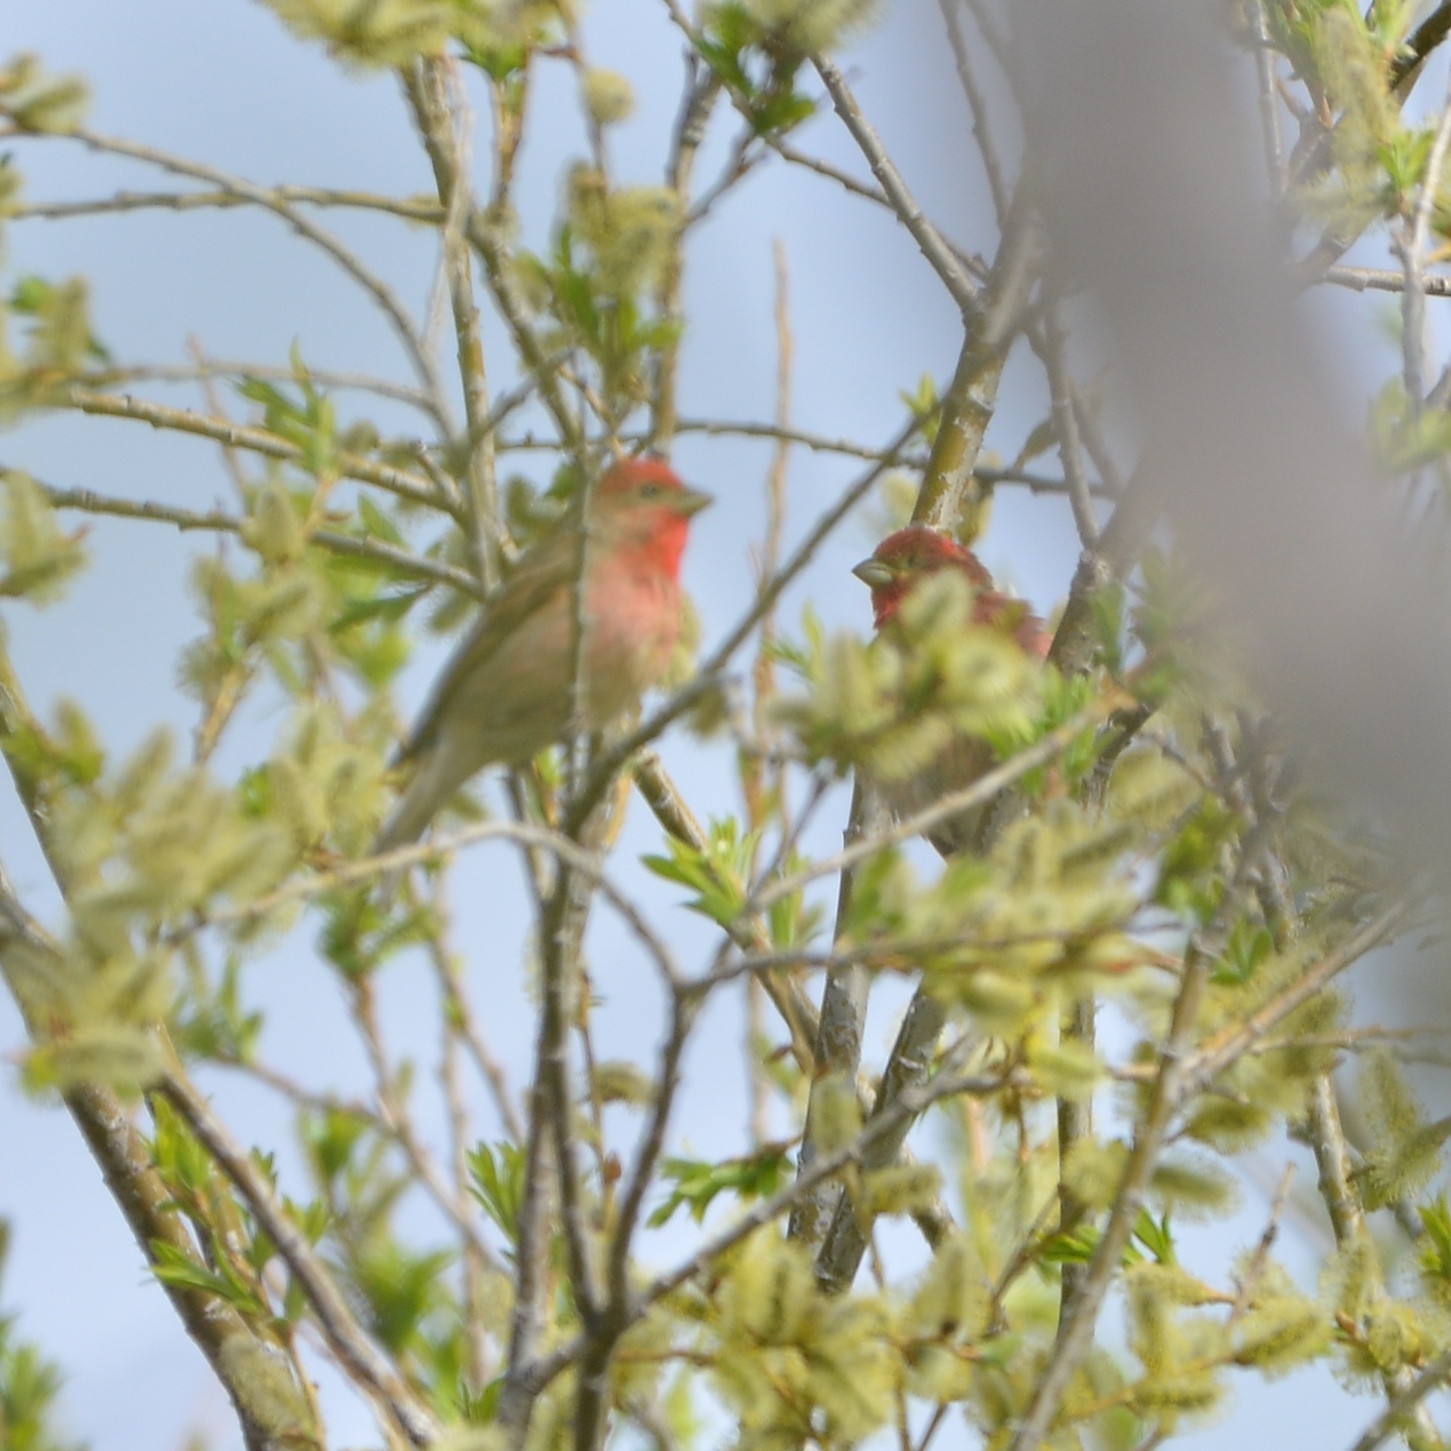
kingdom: Animalia
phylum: Chordata
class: Aves
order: Passeriformes
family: Fringillidae
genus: Carpodacus
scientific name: Carpodacus erythrinus
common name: Common rosefinch
